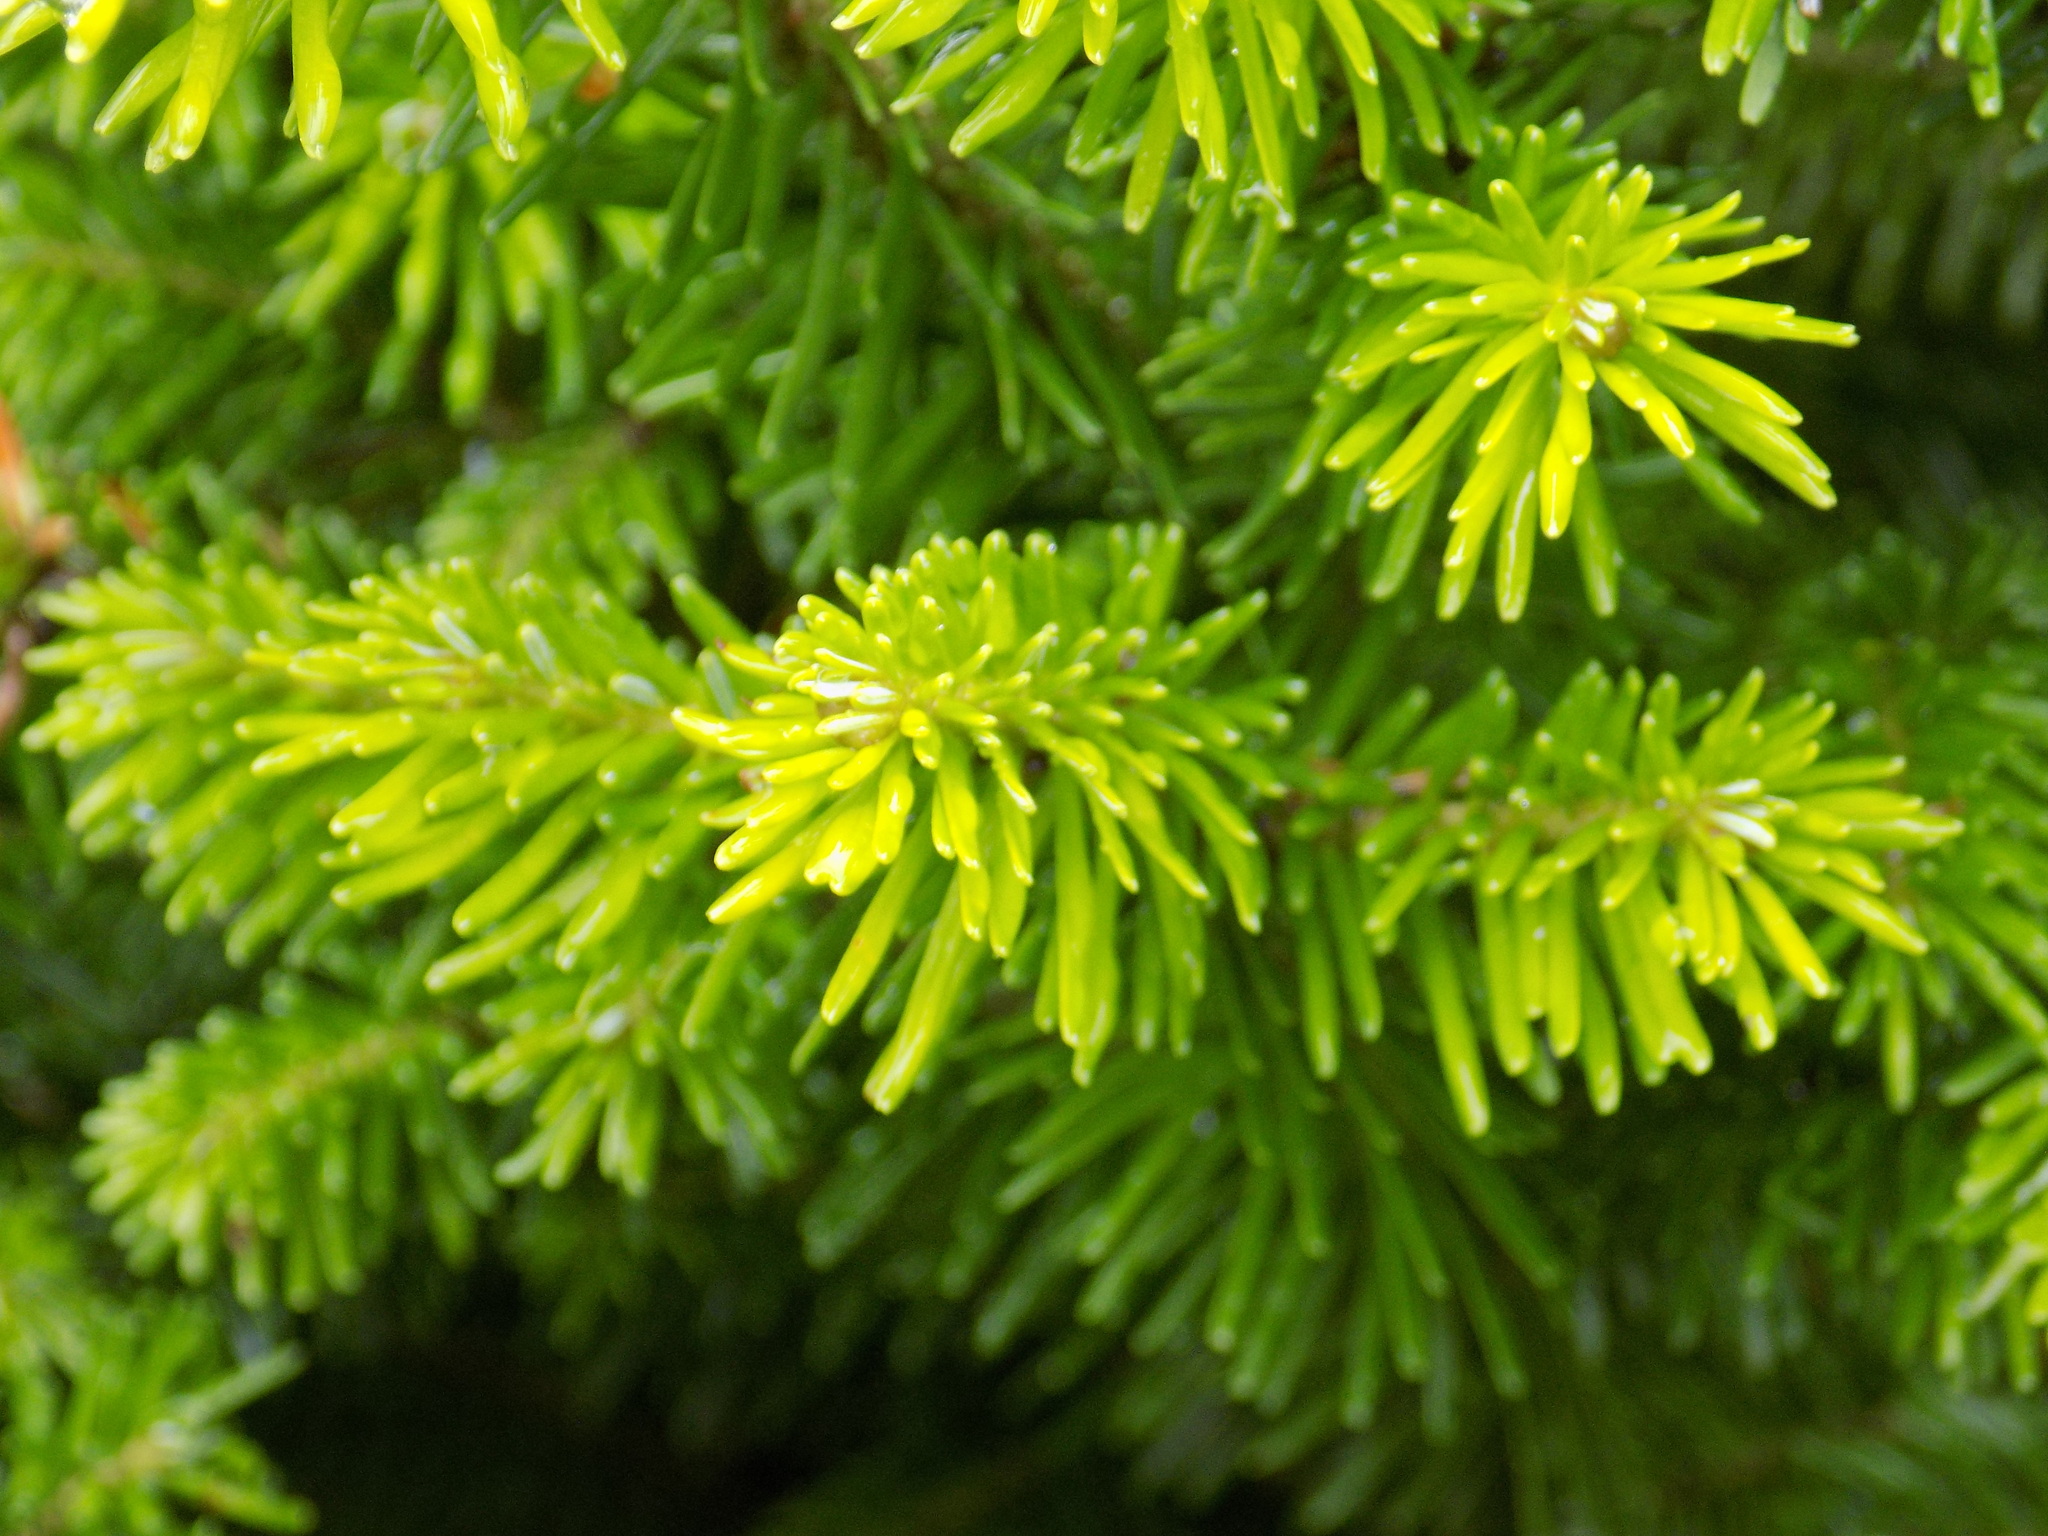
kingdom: Plantae
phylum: Tracheophyta
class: Pinopsida
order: Pinales
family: Pinaceae
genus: Abies
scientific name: Abies sibirica
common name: Siberian fir
